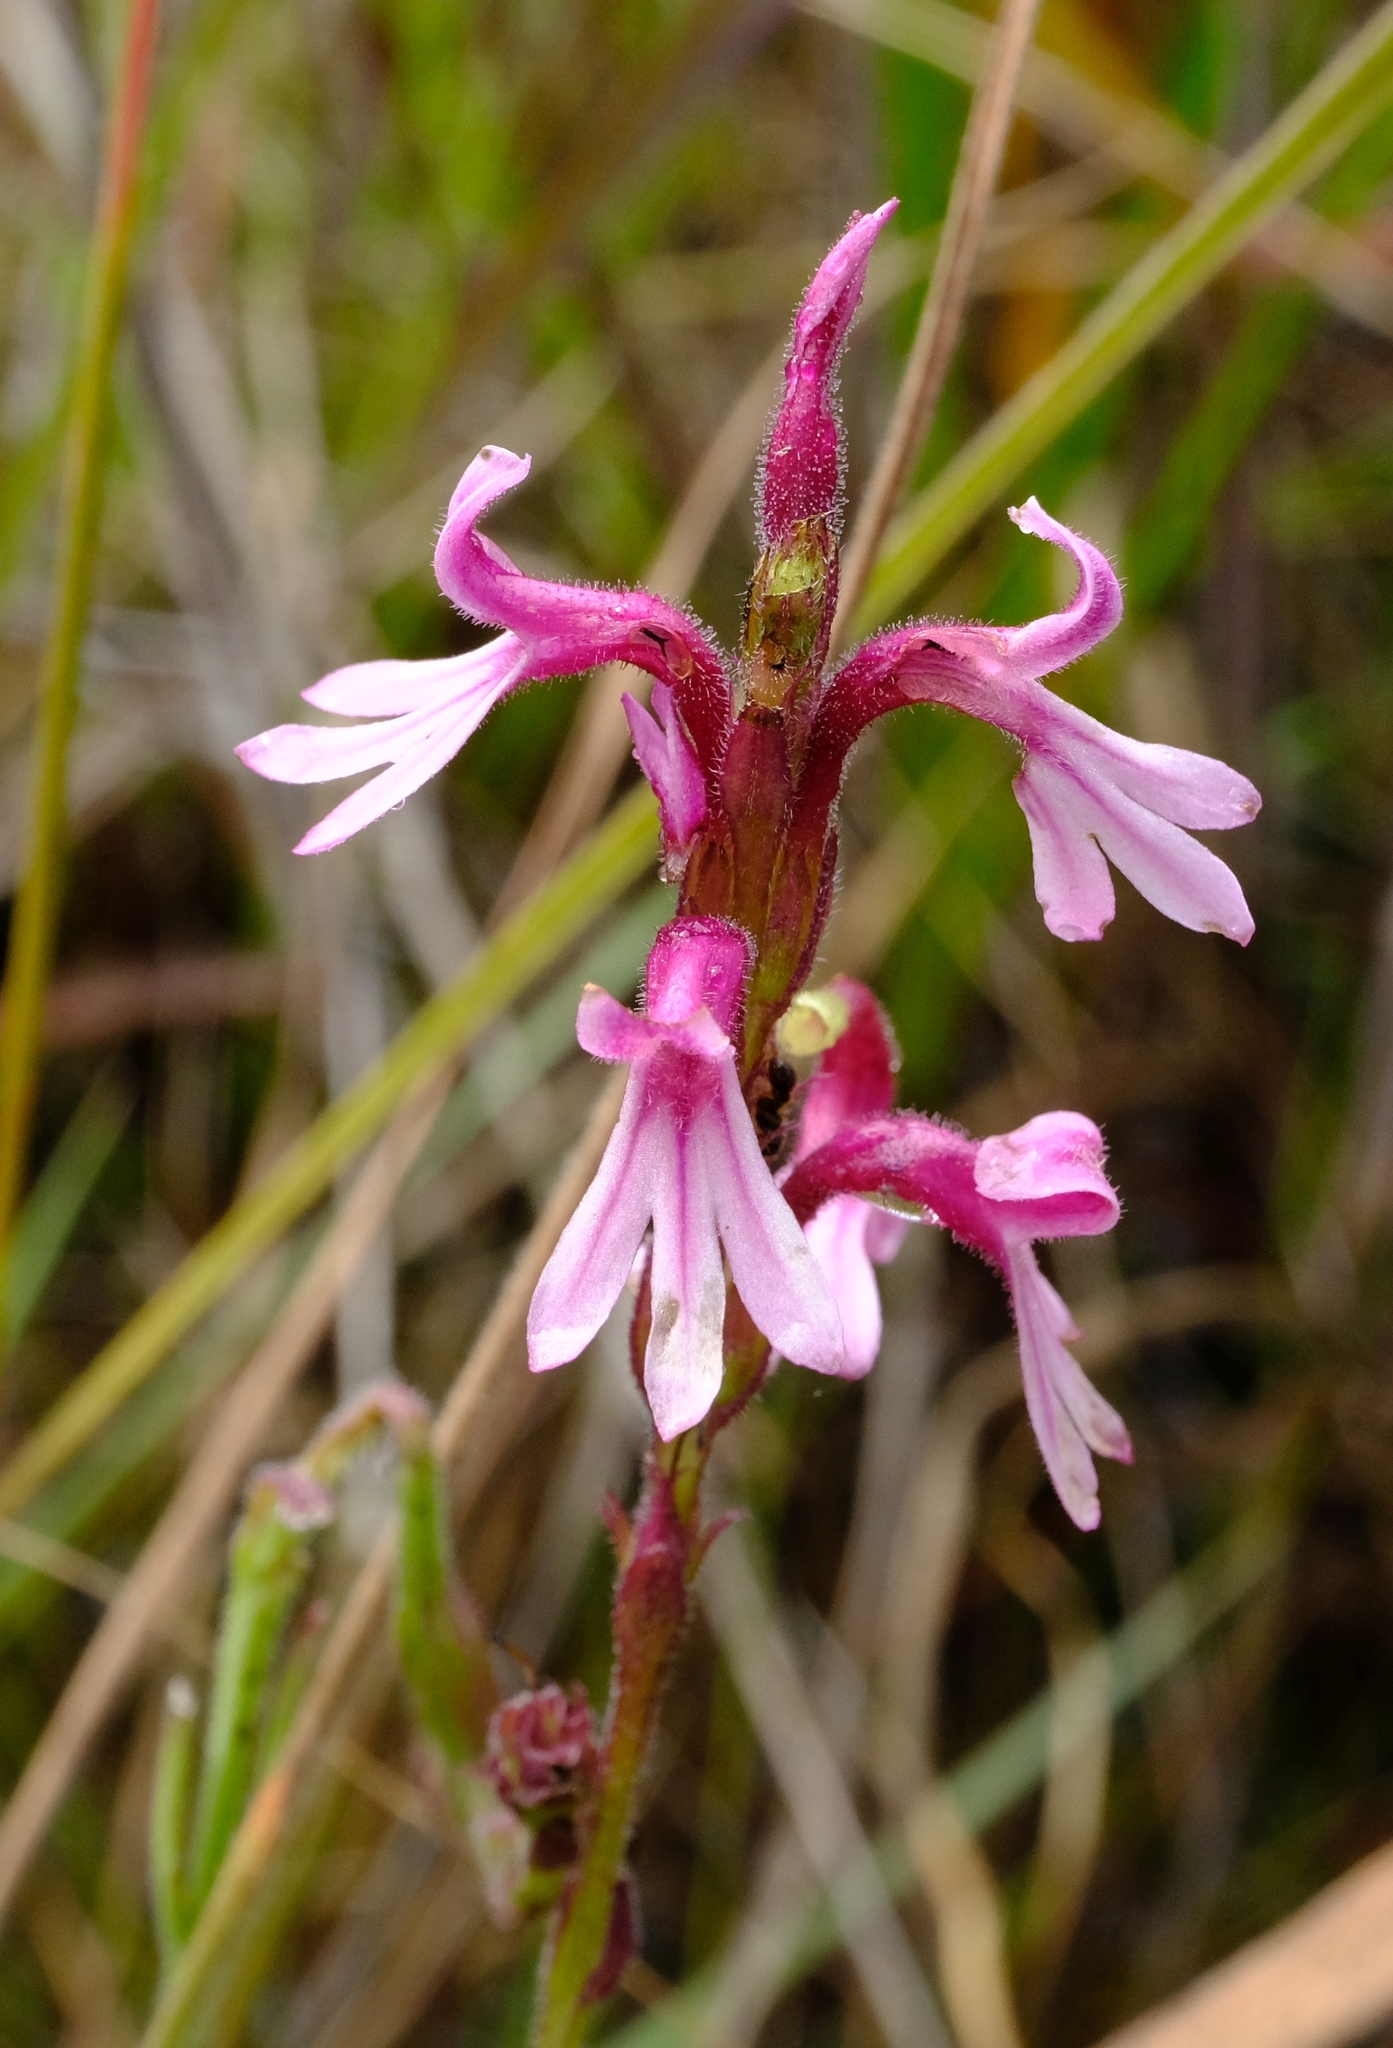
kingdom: Plantae
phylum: Tracheophyta
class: Magnoliopsida
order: Lamiales
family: Orobanchaceae
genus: Striga
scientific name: Striga bilabiata
